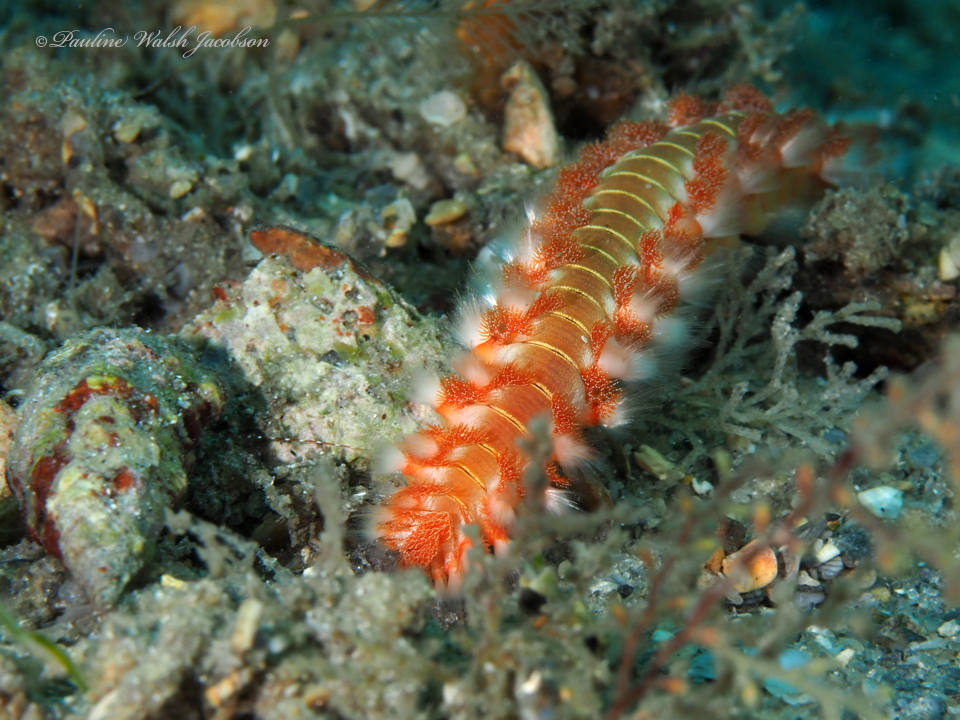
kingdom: Animalia
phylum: Annelida
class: Polychaeta
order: Amphinomida
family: Amphinomidae
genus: Hermodice
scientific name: Hermodice carunculata
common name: Bearded fireworm
